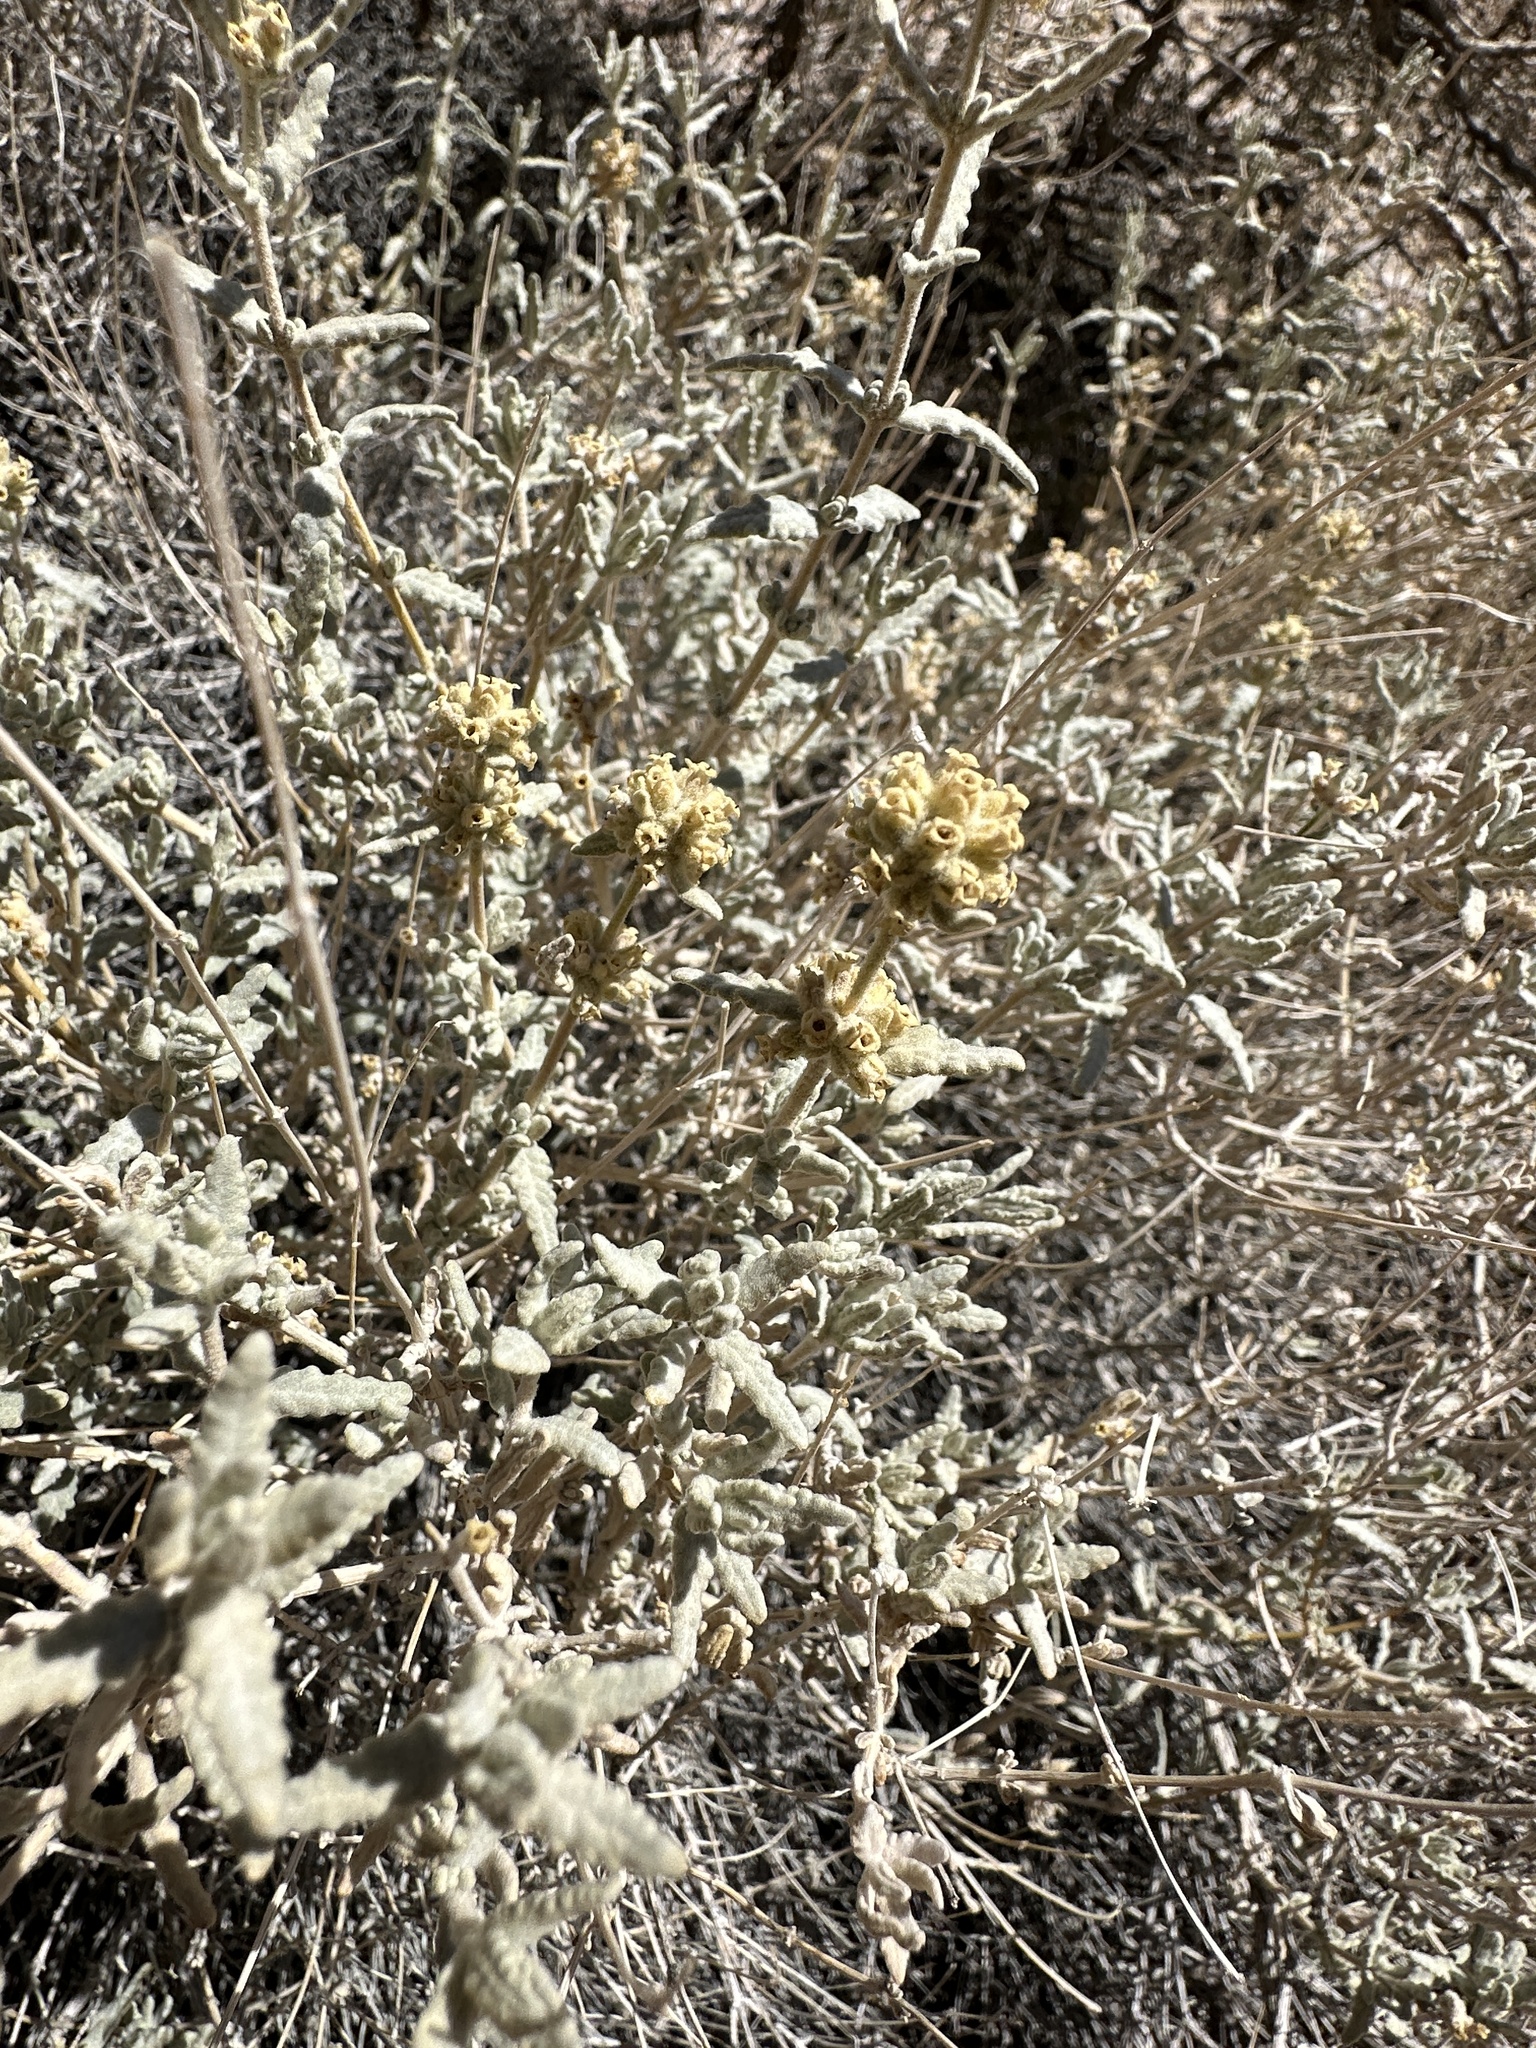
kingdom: Plantae
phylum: Tracheophyta
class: Magnoliopsida
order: Lamiales
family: Scrophulariaceae
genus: Buddleja
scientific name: Buddleja utahensis
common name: Utah butterfly-bush
